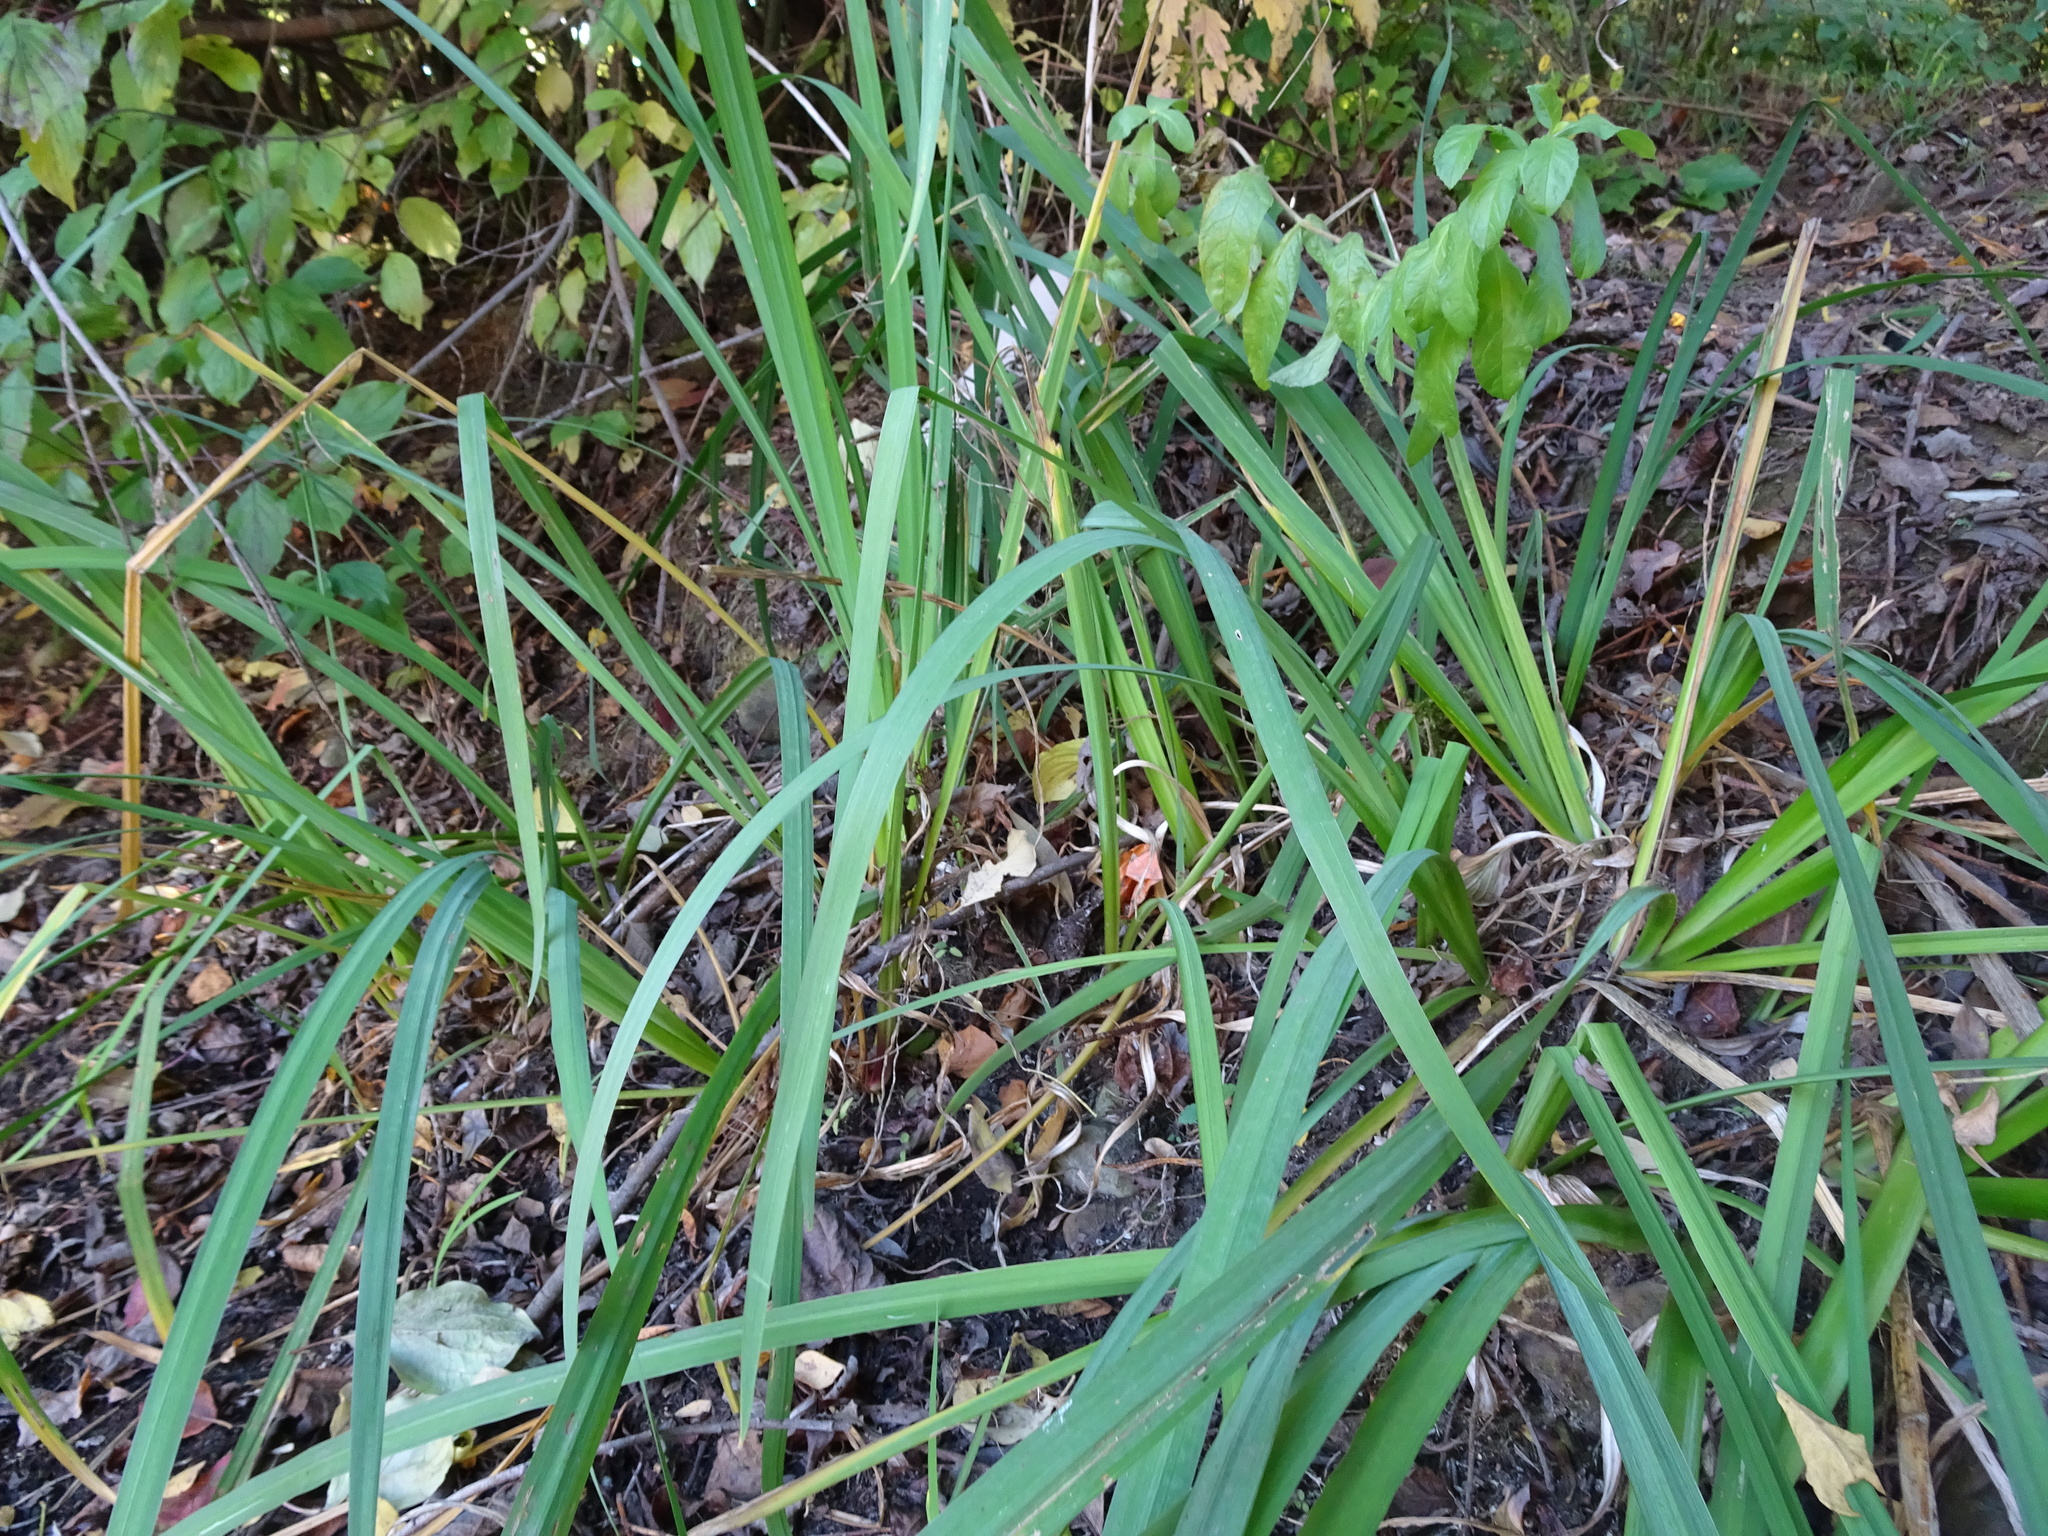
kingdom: Plantae
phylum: Tracheophyta
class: Liliopsida
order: Asparagales
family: Iridaceae
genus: Iris
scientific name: Iris pseudacorus
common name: Yellow flag
